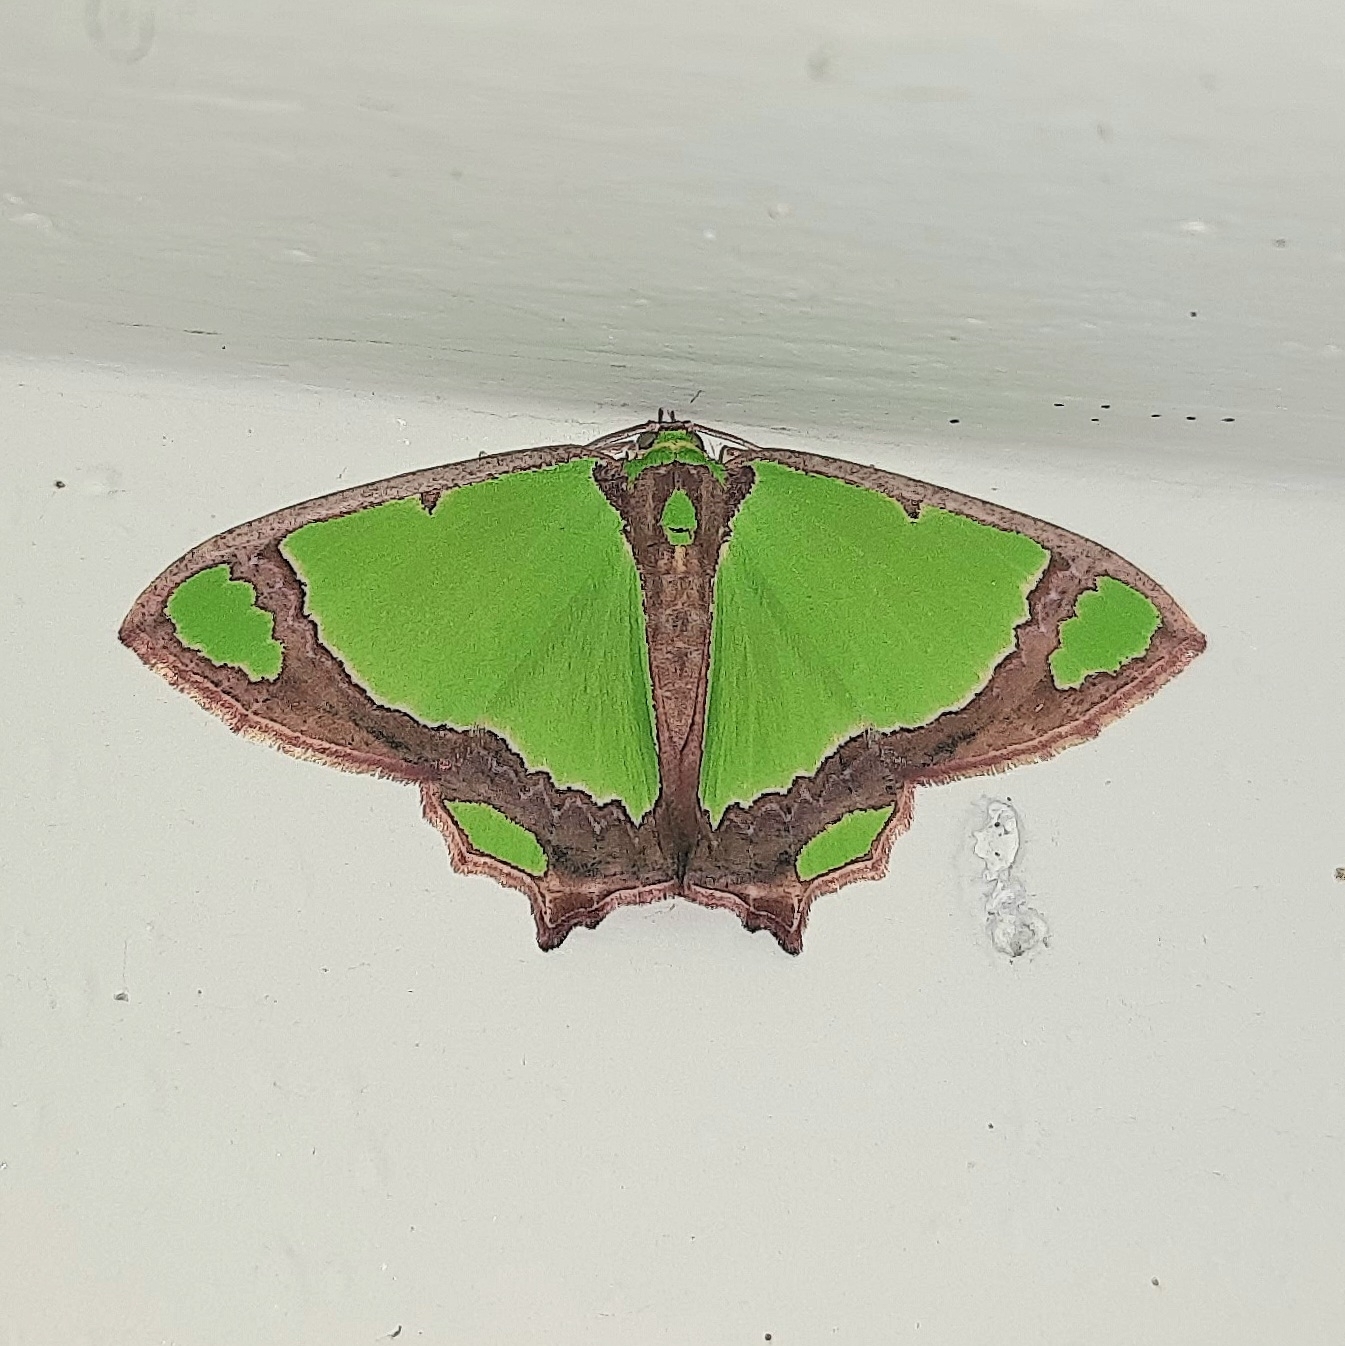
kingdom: Animalia
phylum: Arthropoda
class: Insecta
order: Lepidoptera
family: Geometridae
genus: Agathia
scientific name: Agathia laetata
